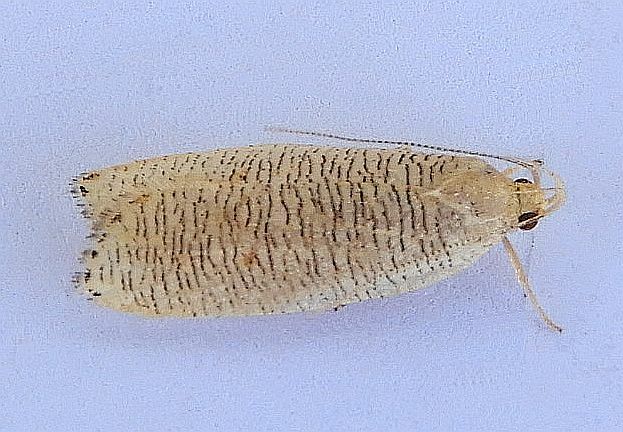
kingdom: Animalia
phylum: Arthropoda
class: Insecta
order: Lepidoptera
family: Depressariidae
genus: Psilocorsis
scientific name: Psilocorsis cirrhoptera
